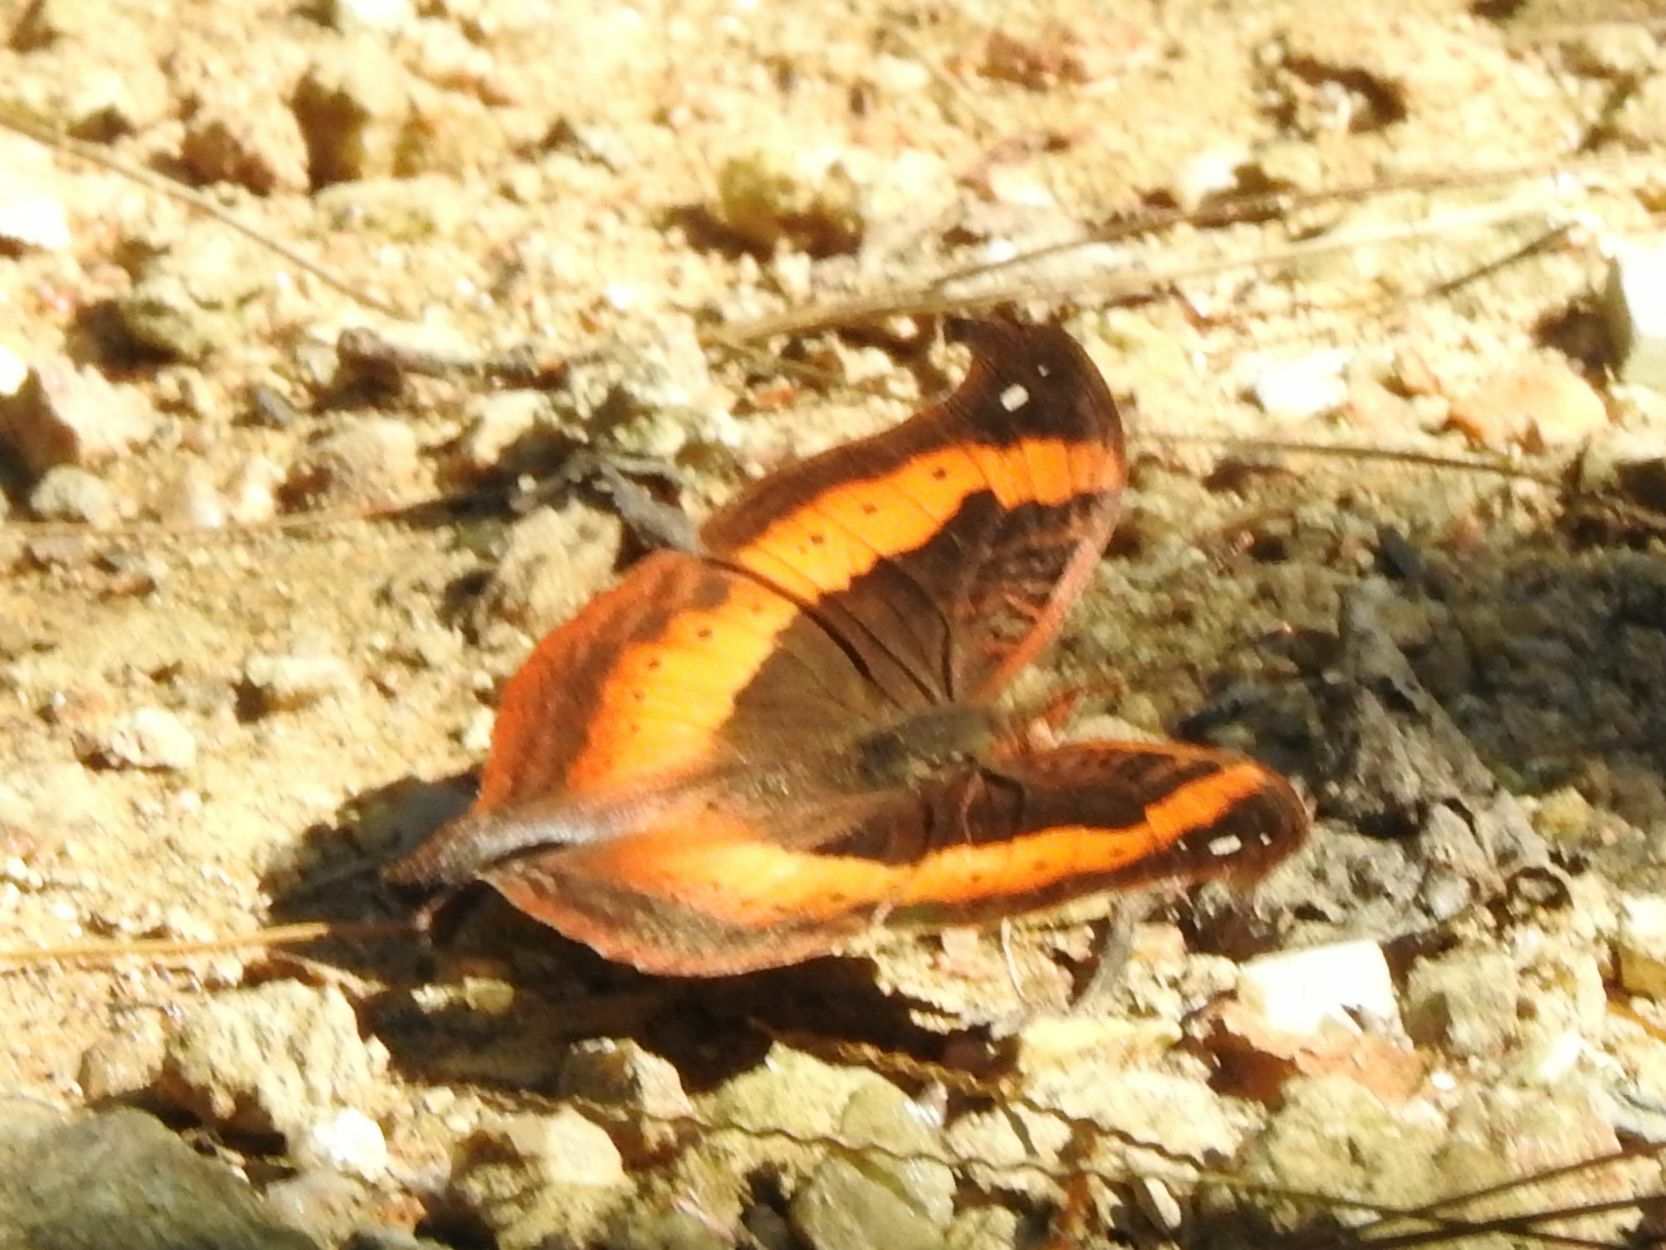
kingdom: Animalia
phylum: Arthropoda
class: Insecta
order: Lepidoptera
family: Nymphalidae
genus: Junonia
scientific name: Junonia tugela
